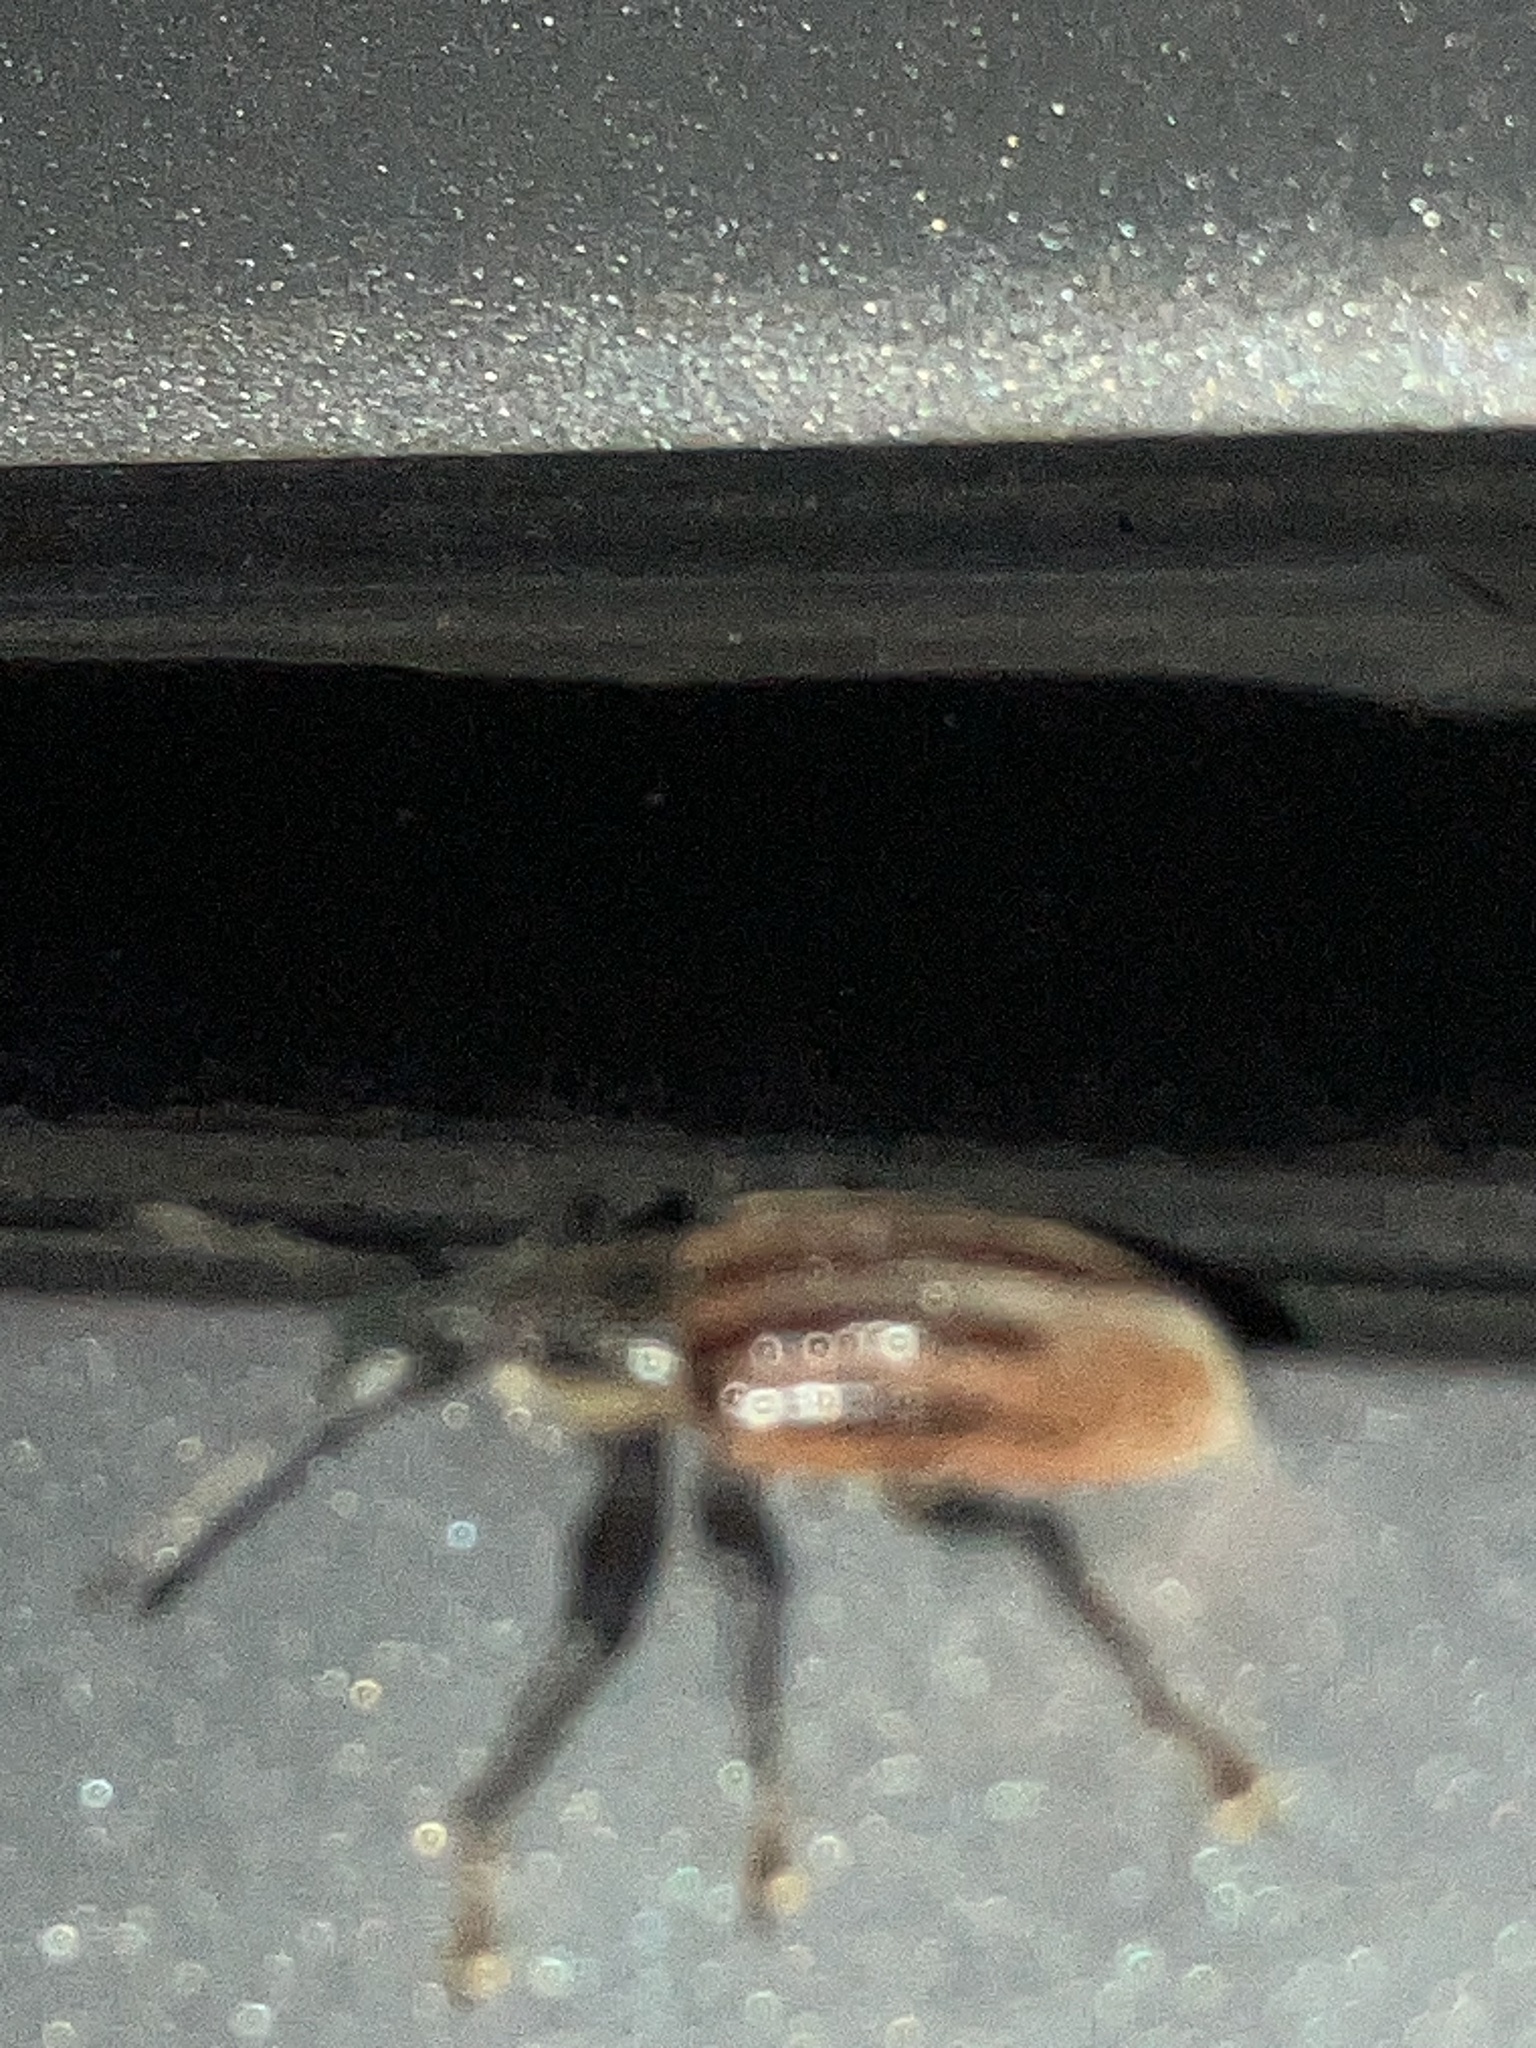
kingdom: Animalia
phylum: Arthropoda
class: Insecta
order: Coleoptera
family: Curculionidae
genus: Diaprepes
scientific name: Diaprepes abbreviatus
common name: Root weevil
